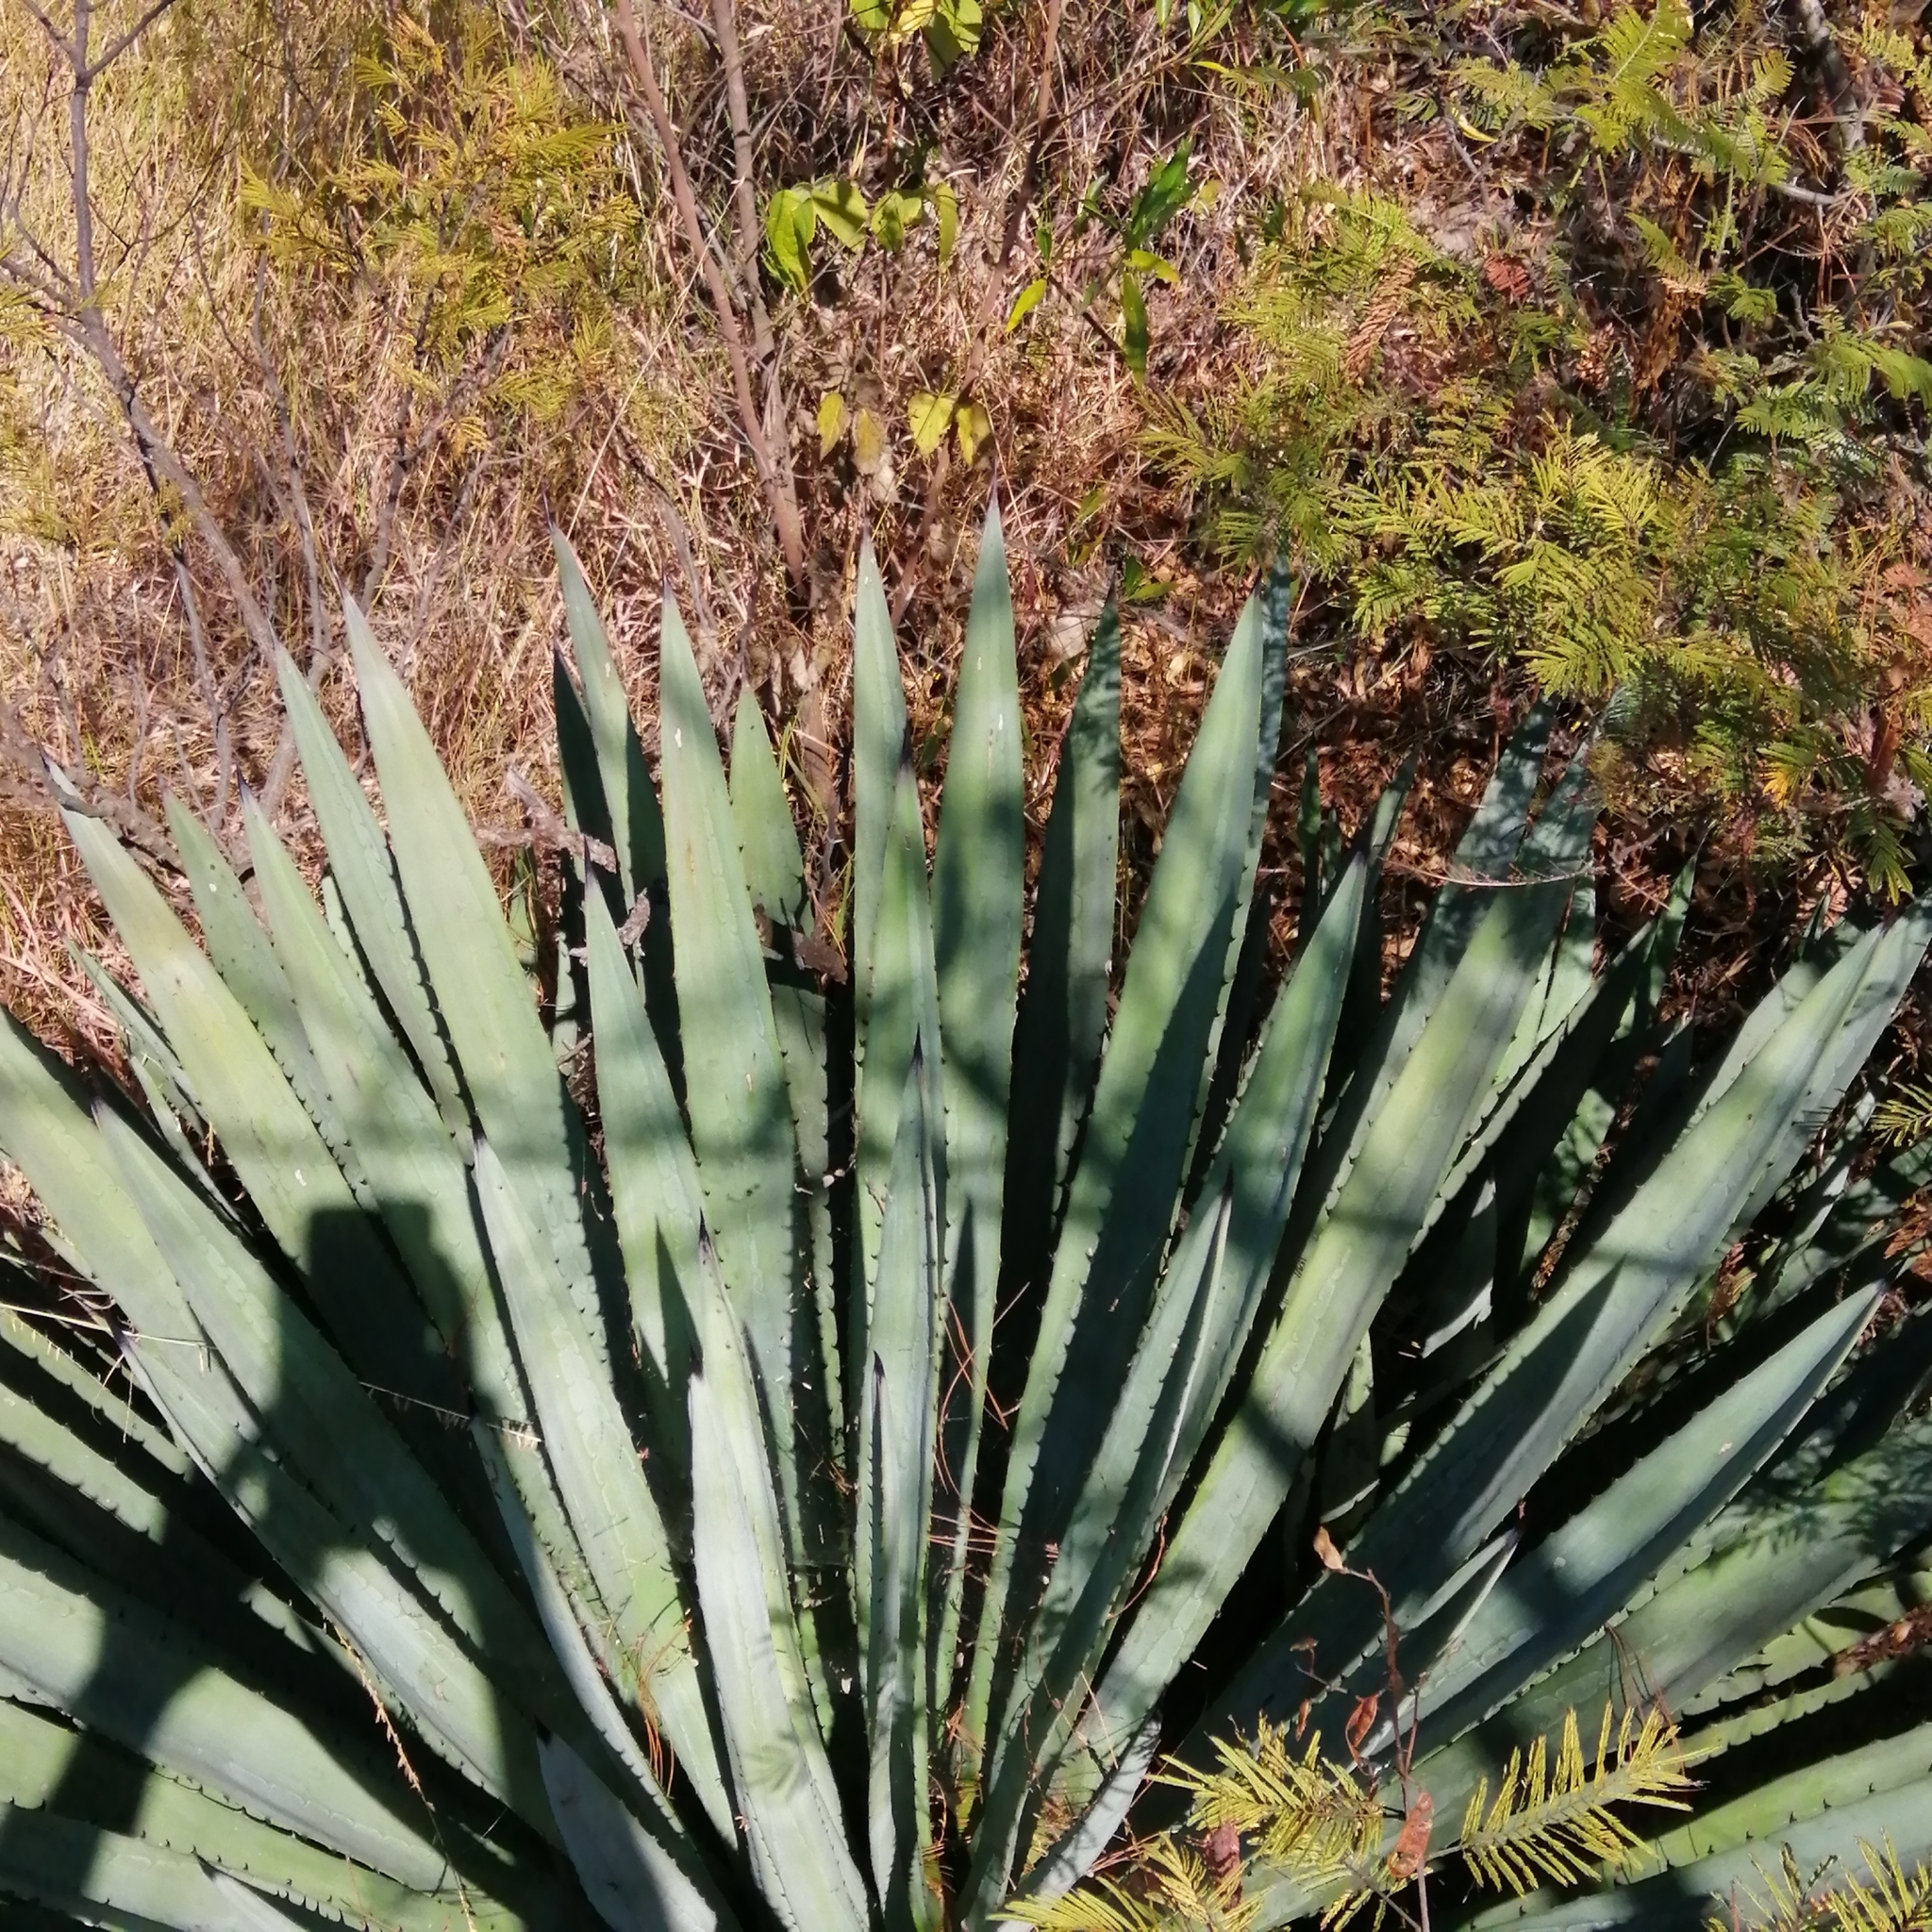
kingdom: Plantae
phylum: Tracheophyta
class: Liliopsida
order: Asparagales
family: Asparagaceae
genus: Agave
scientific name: Agave angustifolia
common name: Mescal agave
